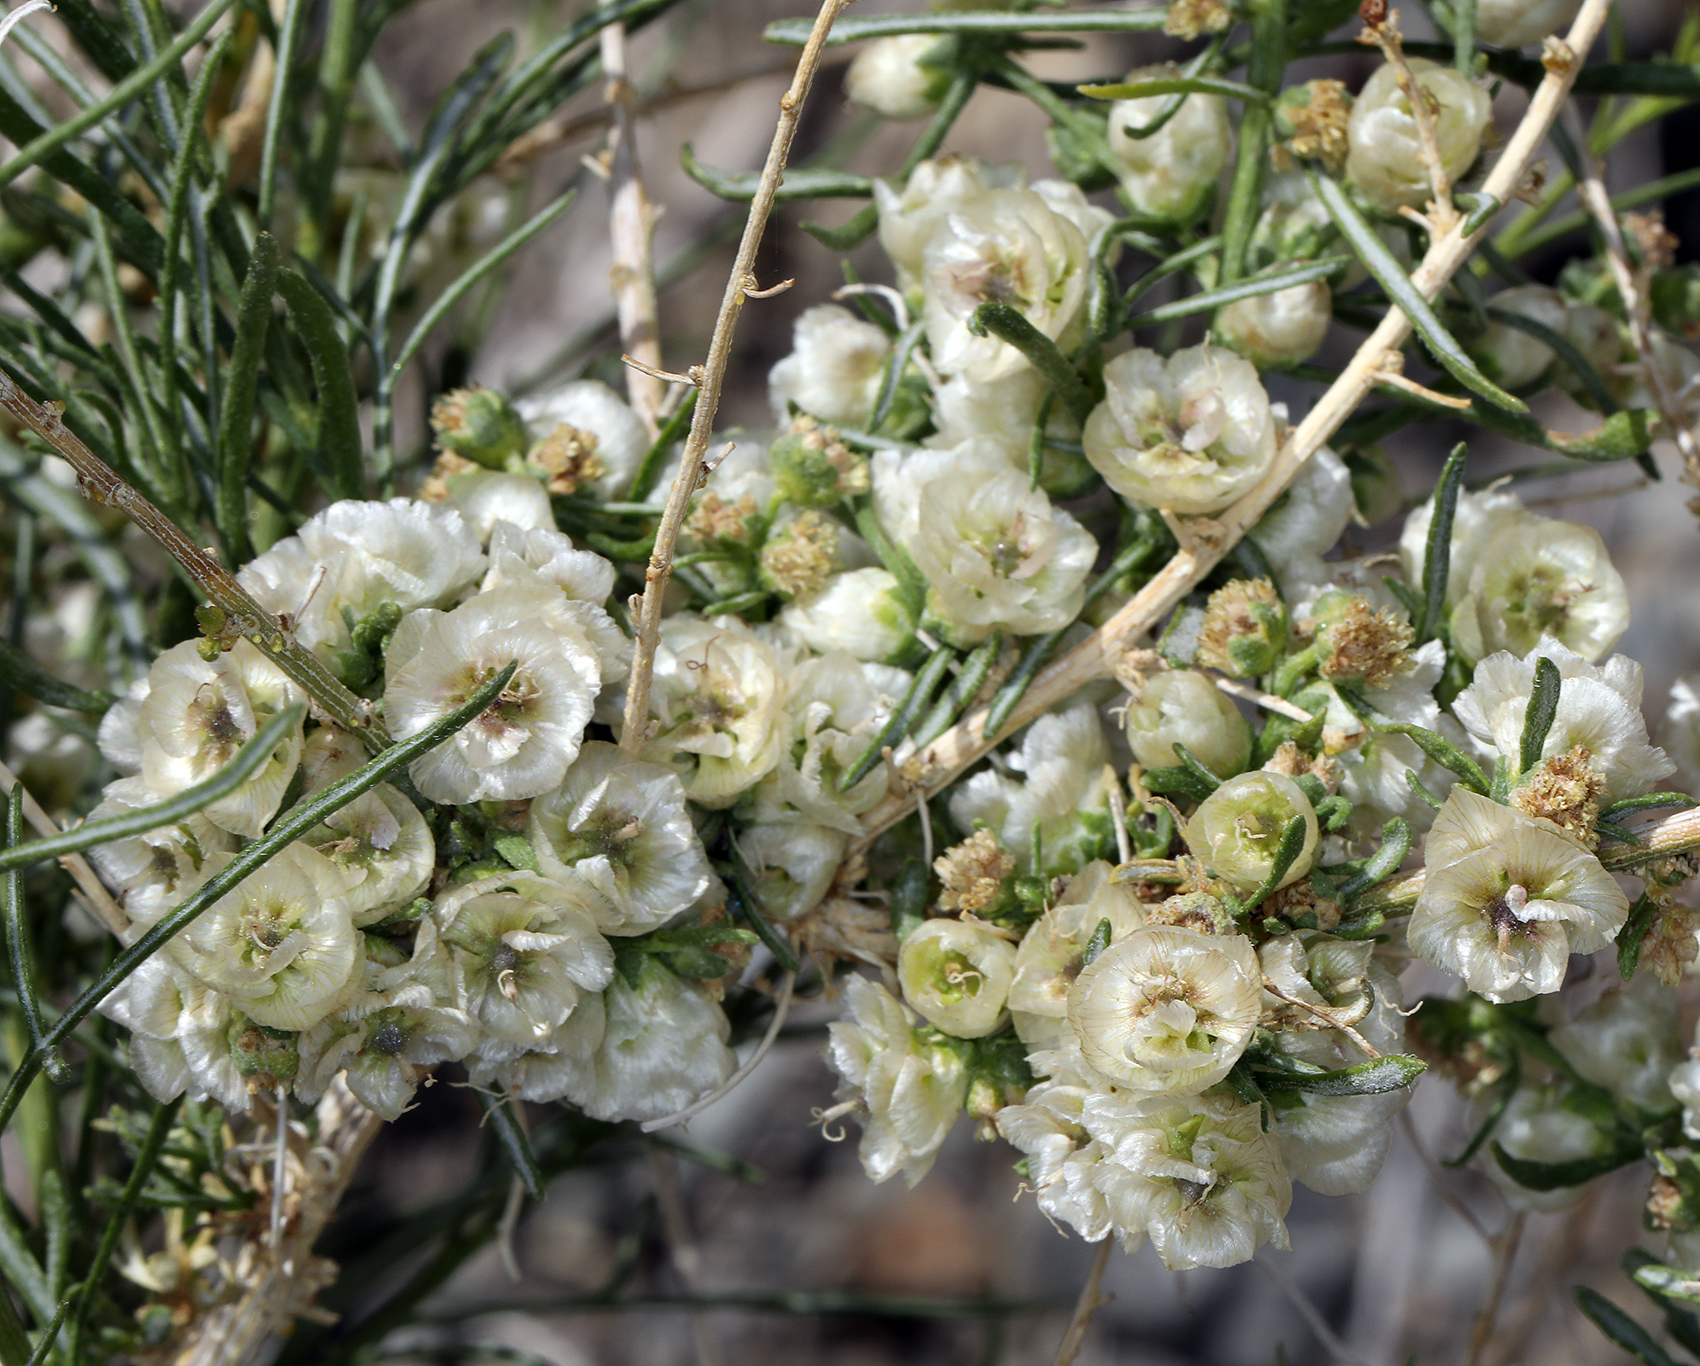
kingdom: Plantae
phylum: Tracheophyta
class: Magnoliopsida
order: Asterales
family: Asteraceae
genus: Ambrosia
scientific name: Ambrosia salsola
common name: Burrobrush
